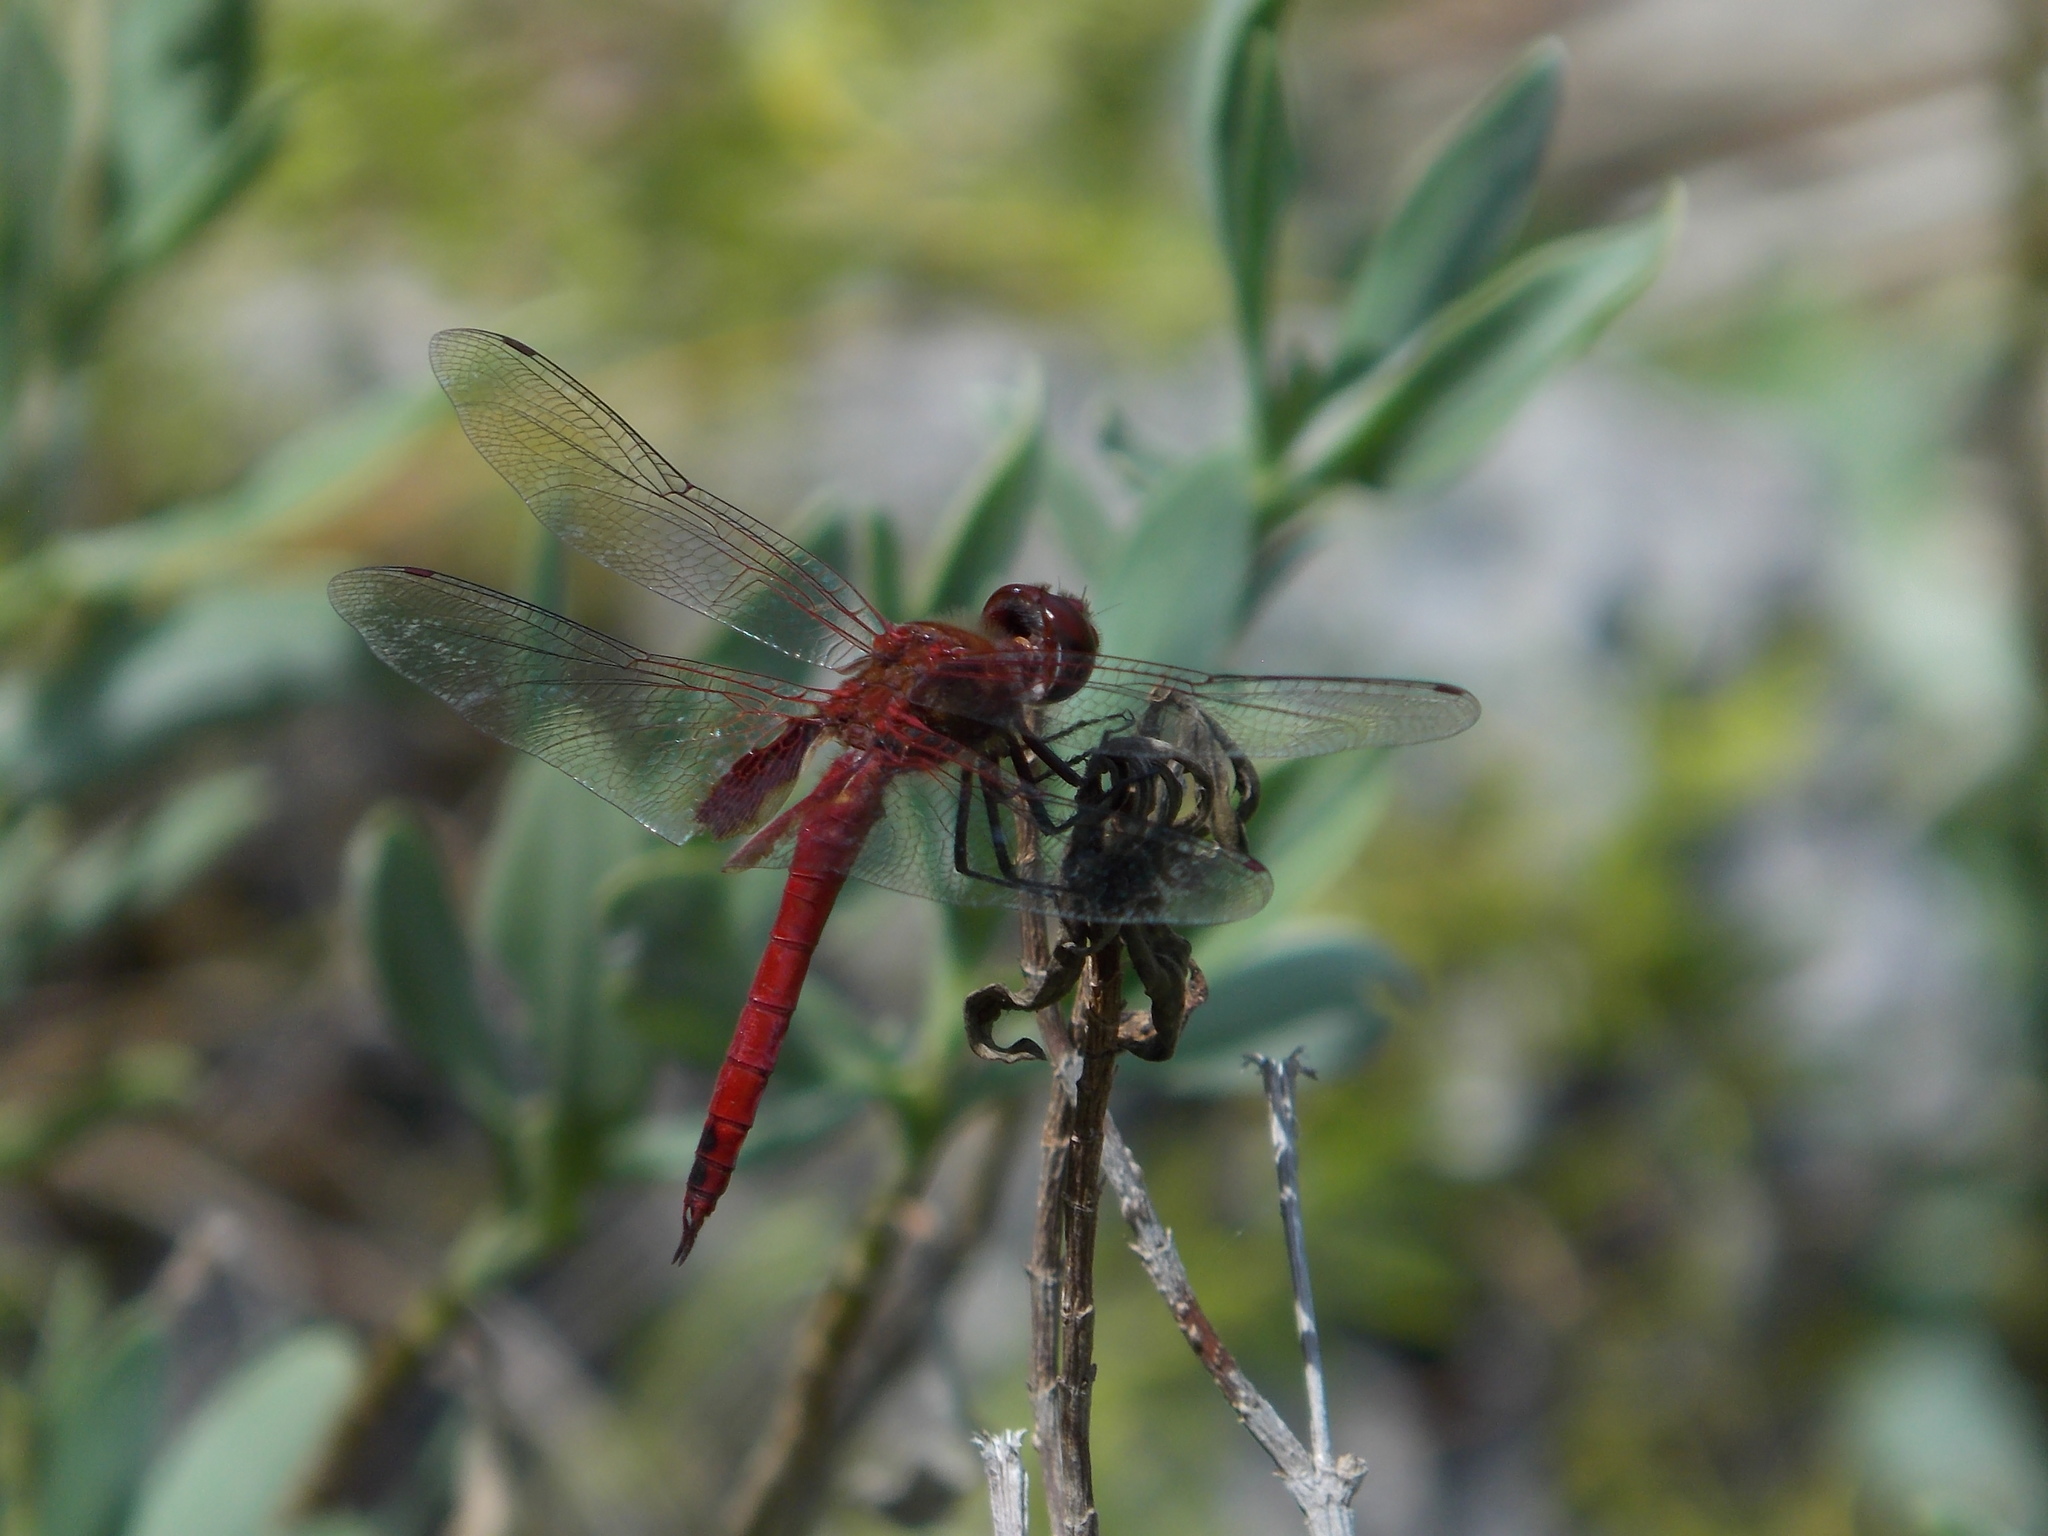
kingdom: Animalia
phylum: Arthropoda
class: Insecta
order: Odonata
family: Libellulidae
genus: Tramea
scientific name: Tramea abdominalis
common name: Vermilion saddlebags
